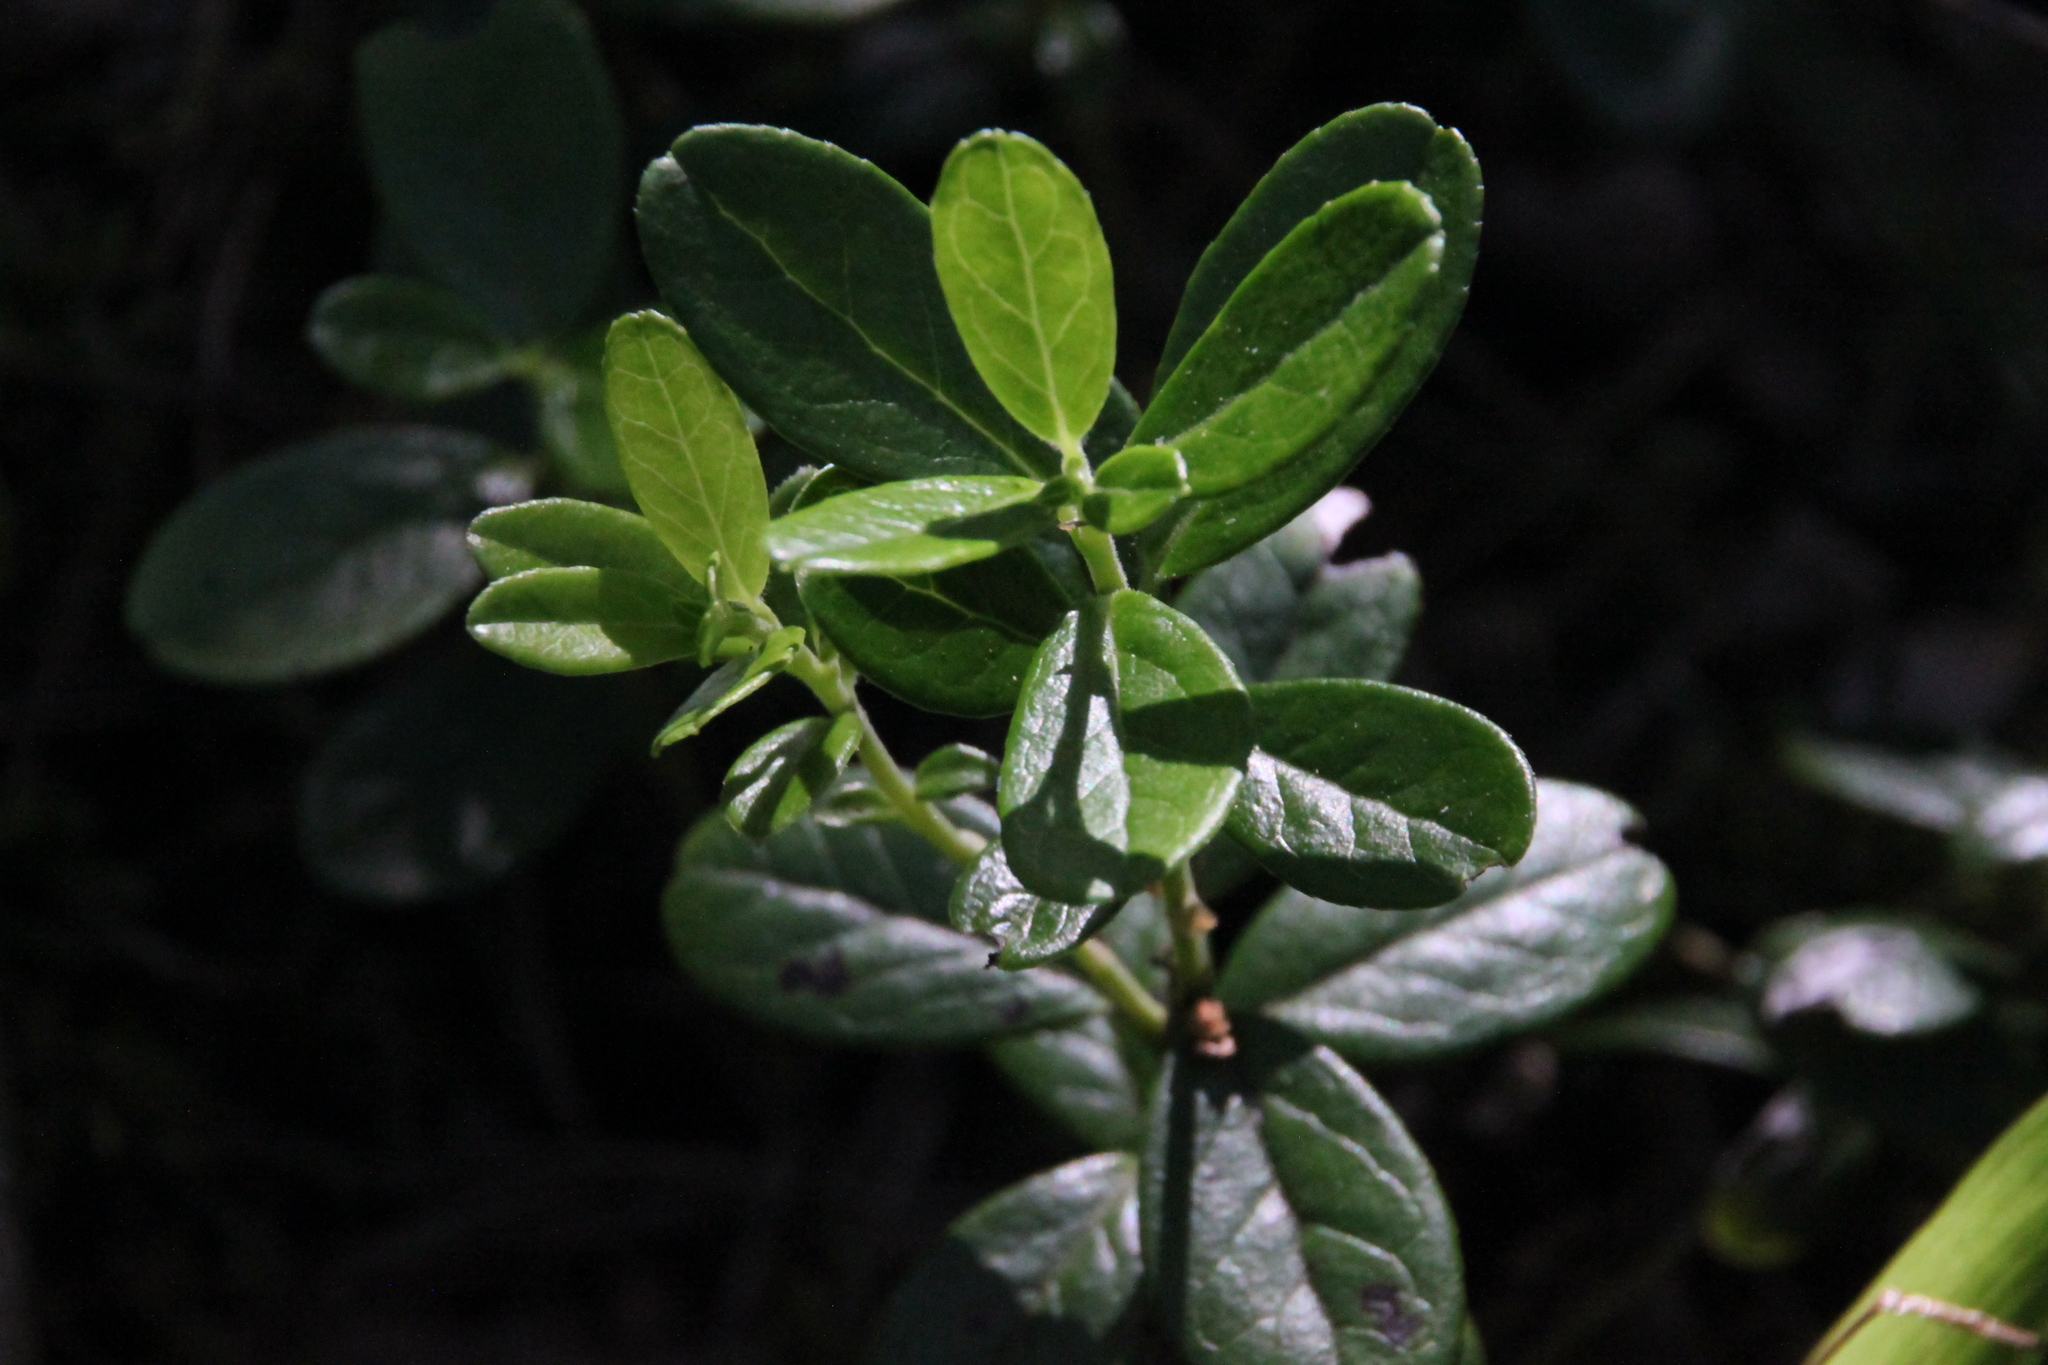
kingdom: Plantae
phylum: Tracheophyta
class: Magnoliopsida
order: Ericales
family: Ericaceae
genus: Vaccinium
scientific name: Vaccinium vitis-idaea
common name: Cowberry
